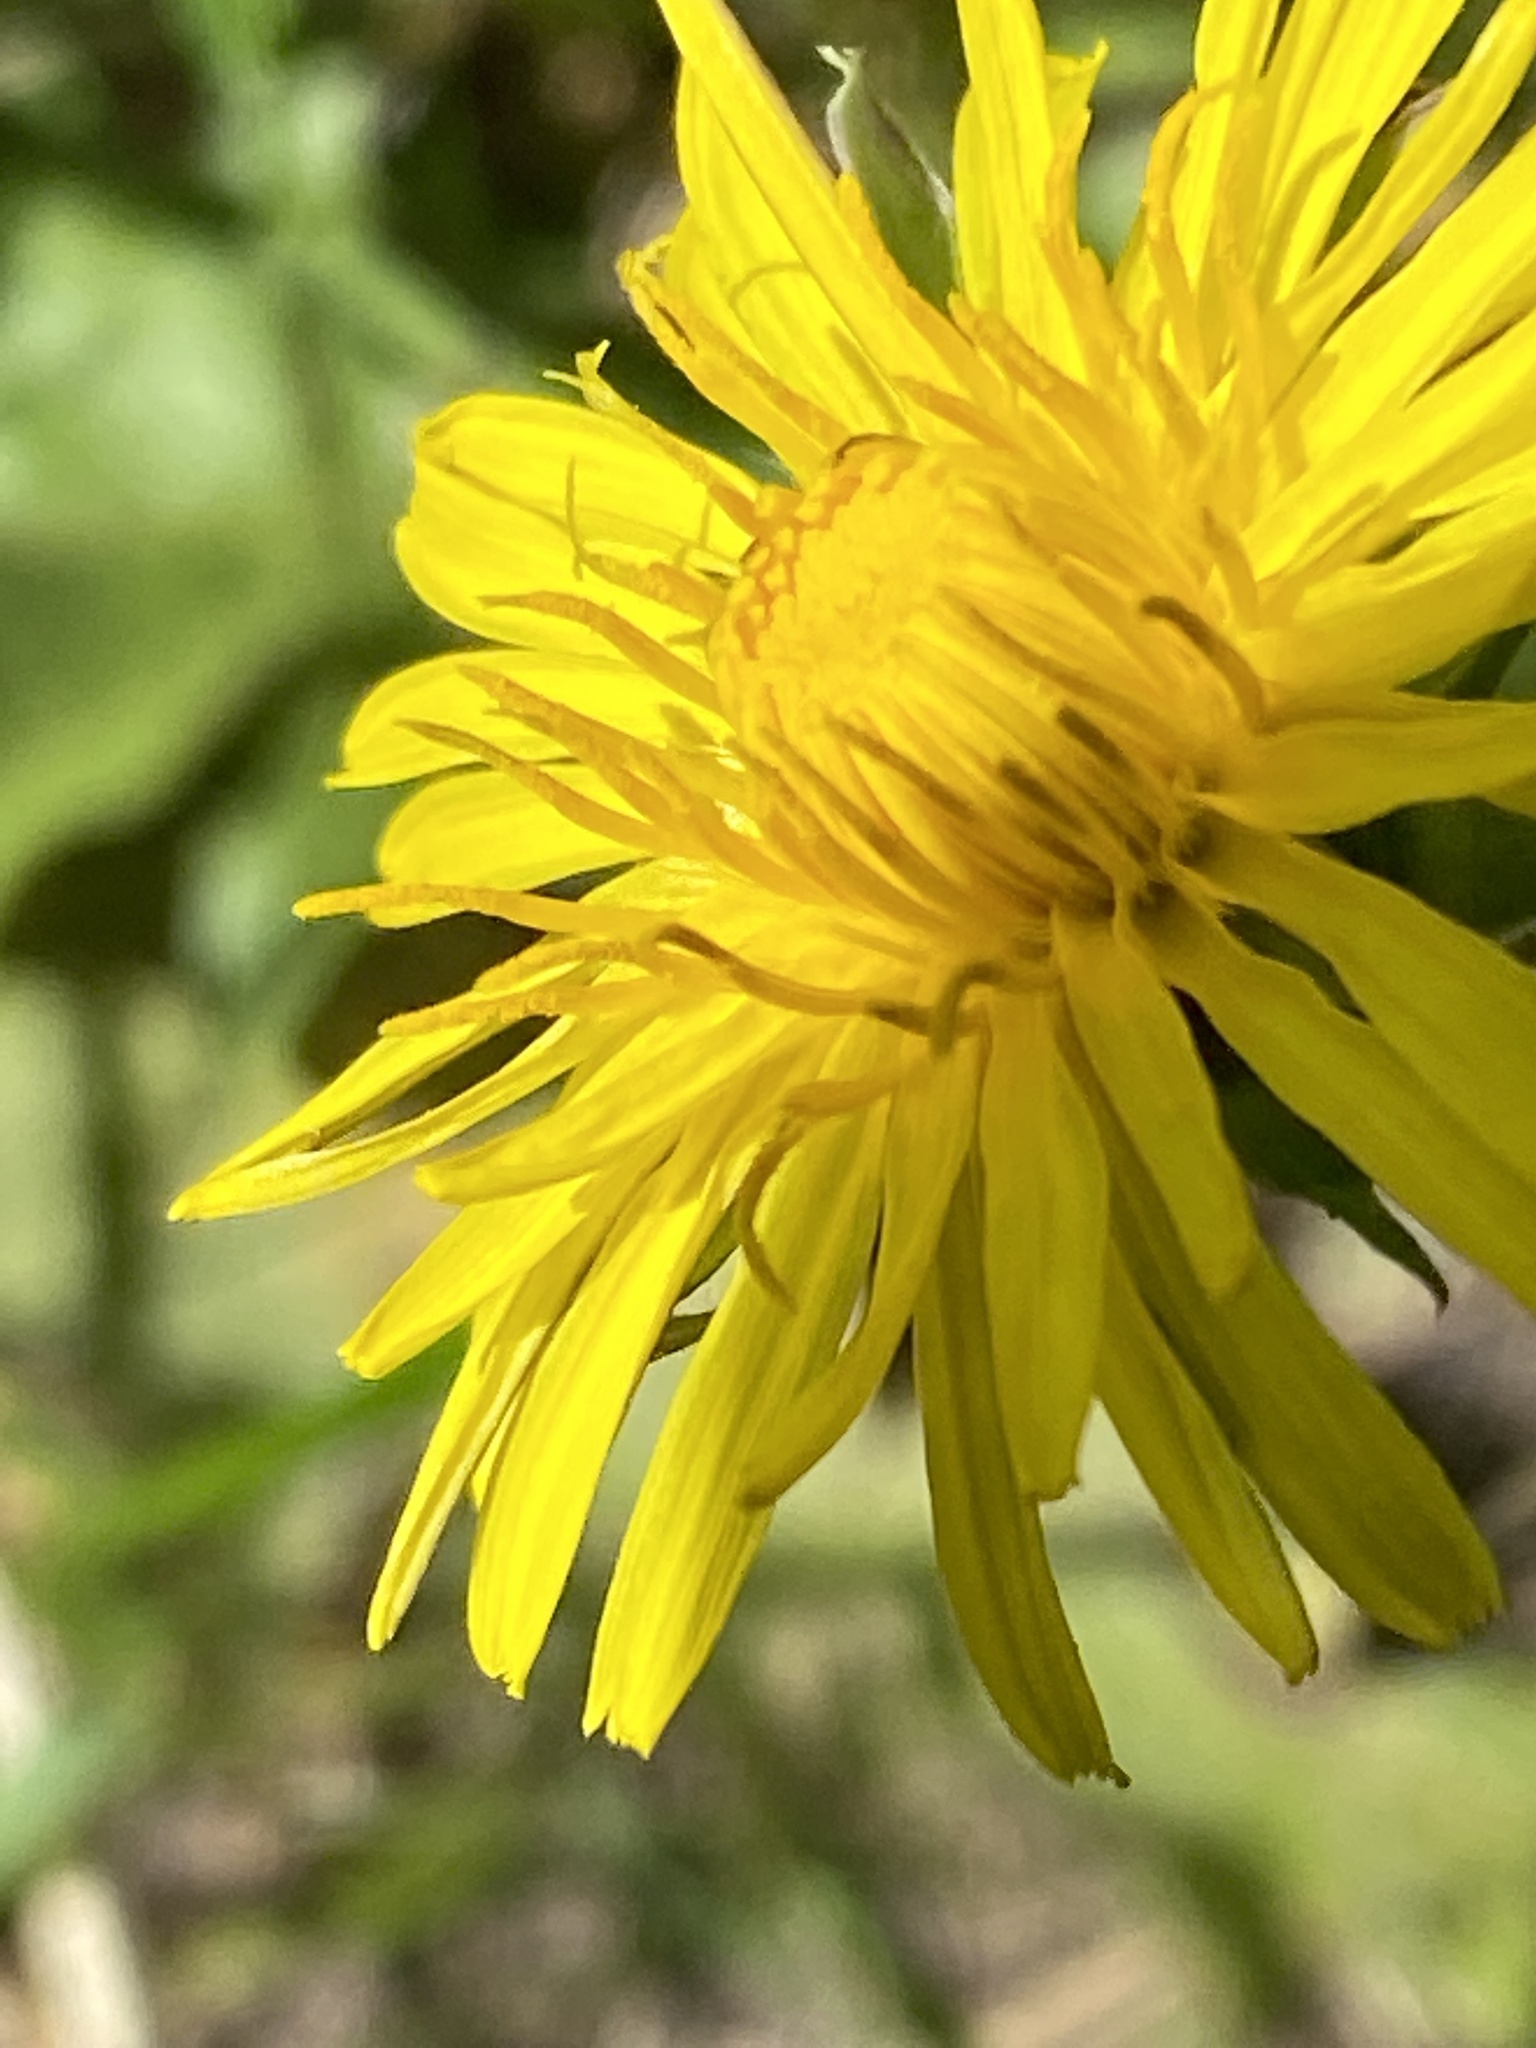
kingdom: Plantae
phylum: Tracheophyta
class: Magnoliopsida
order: Asterales
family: Asteraceae
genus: Taraxacum
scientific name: Taraxacum officinale
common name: Common dandelion
